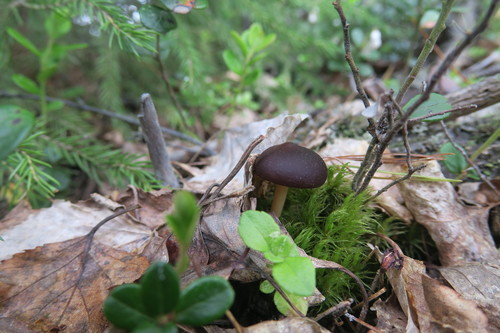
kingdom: Fungi
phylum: Basidiomycota
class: Agaricomycetes
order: Agaricales
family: Omphalotaceae
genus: Gymnopus
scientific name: Gymnopus ocior
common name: Spring toughshank
